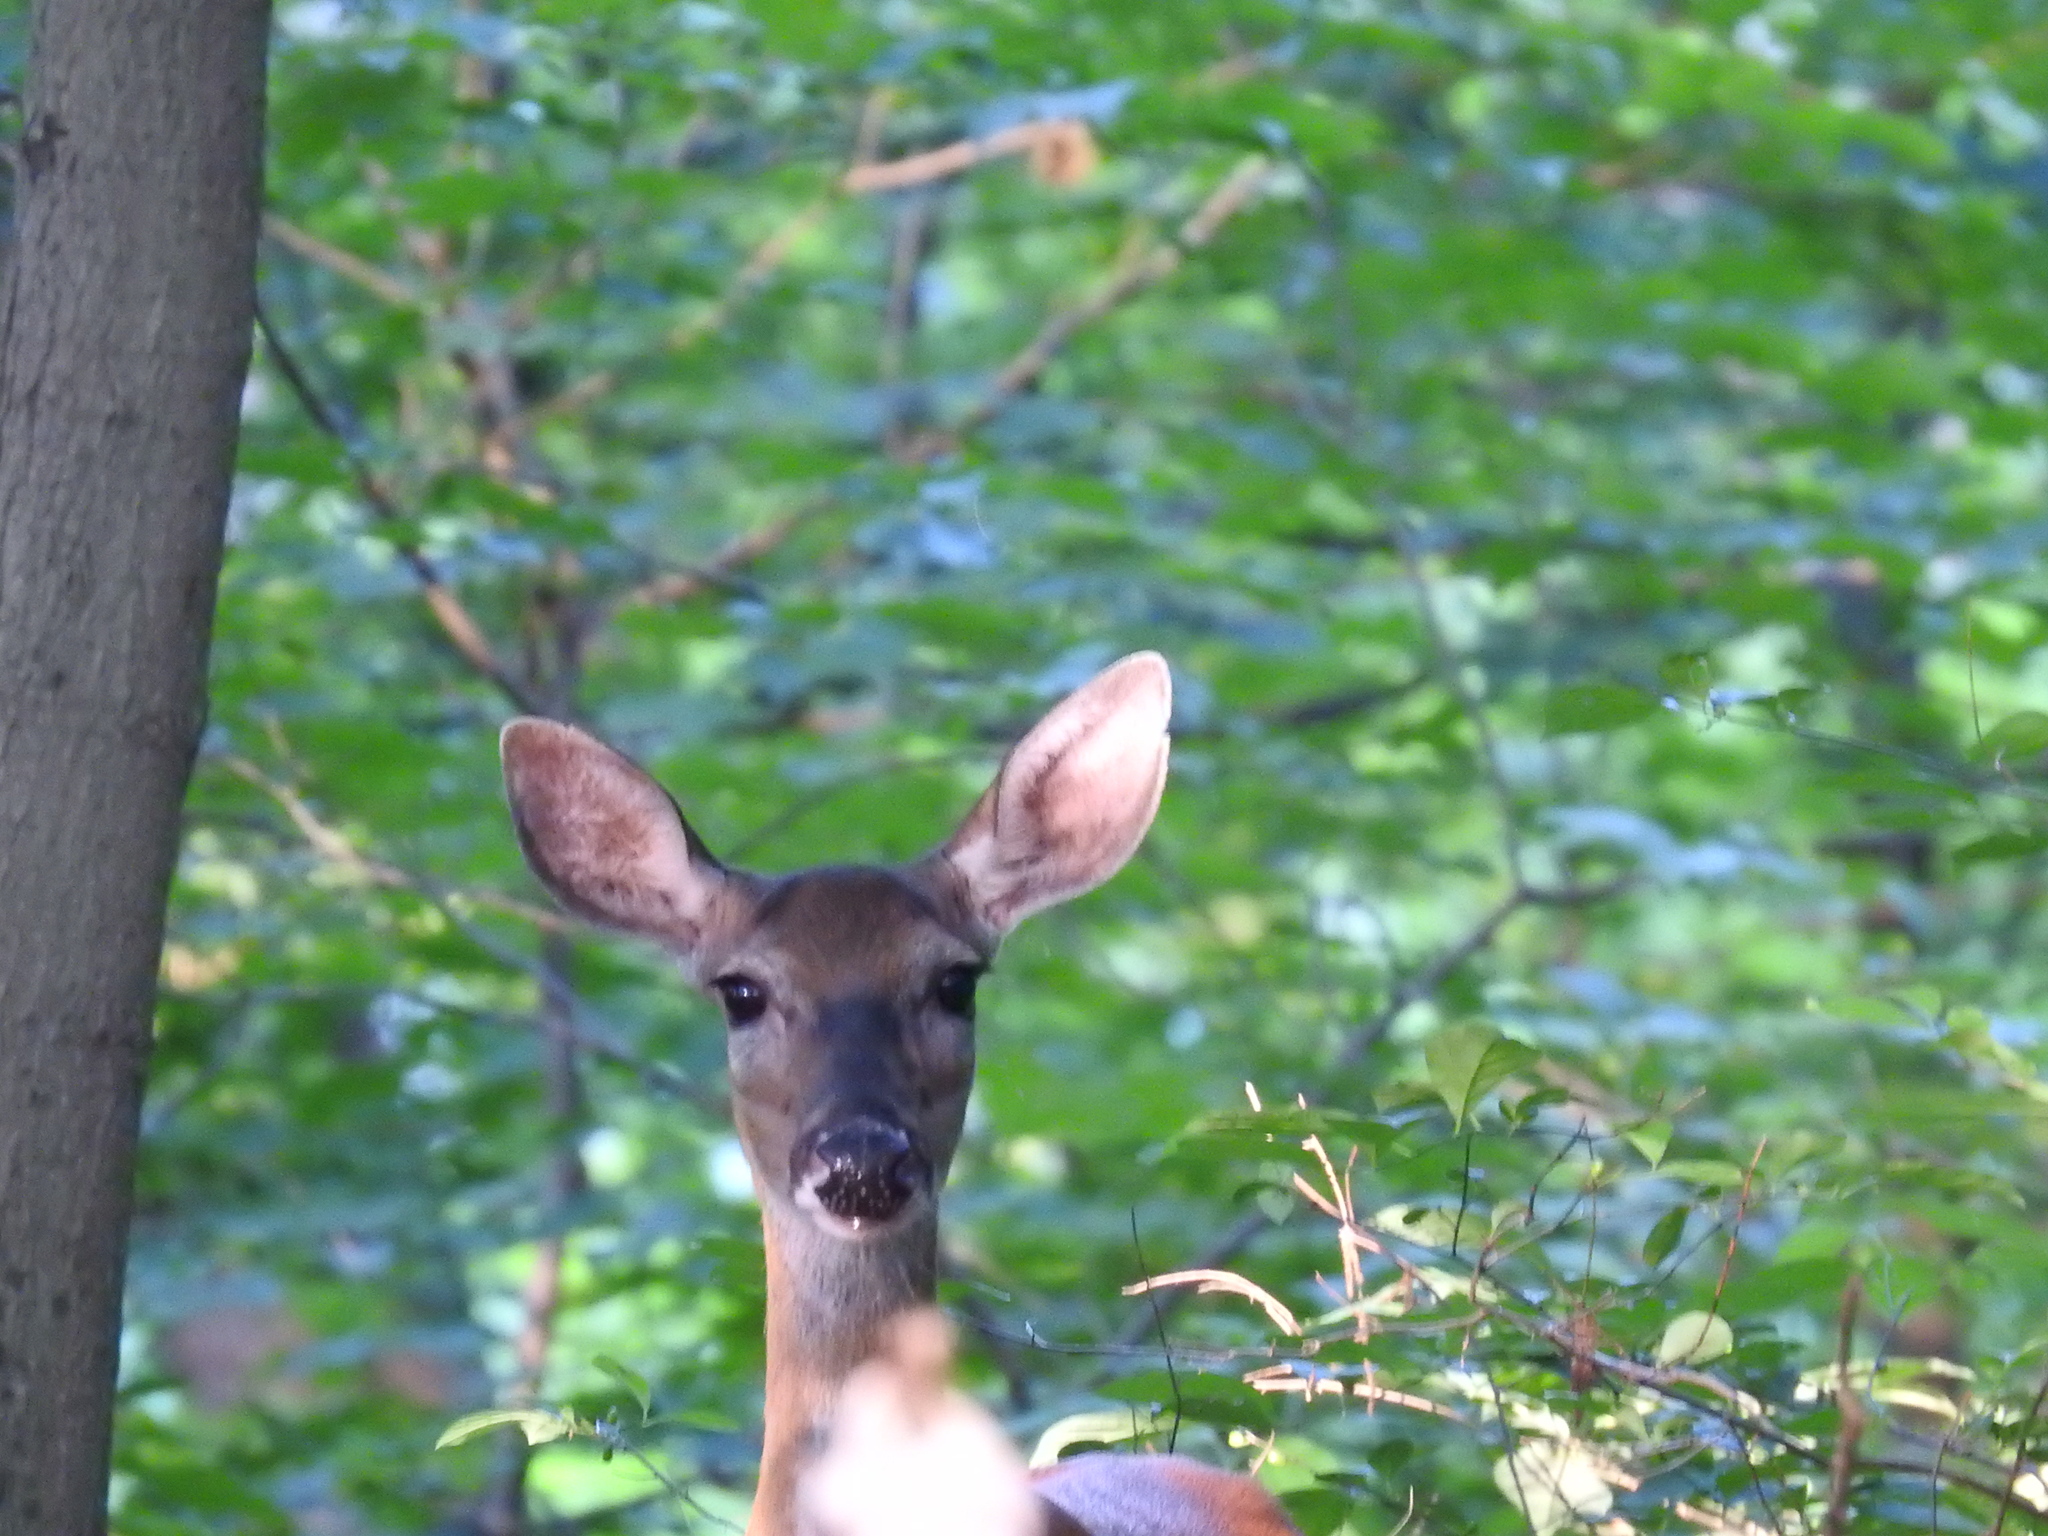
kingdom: Animalia
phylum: Chordata
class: Mammalia
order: Artiodactyla
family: Cervidae
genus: Odocoileus
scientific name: Odocoileus virginianus
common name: White-tailed deer
